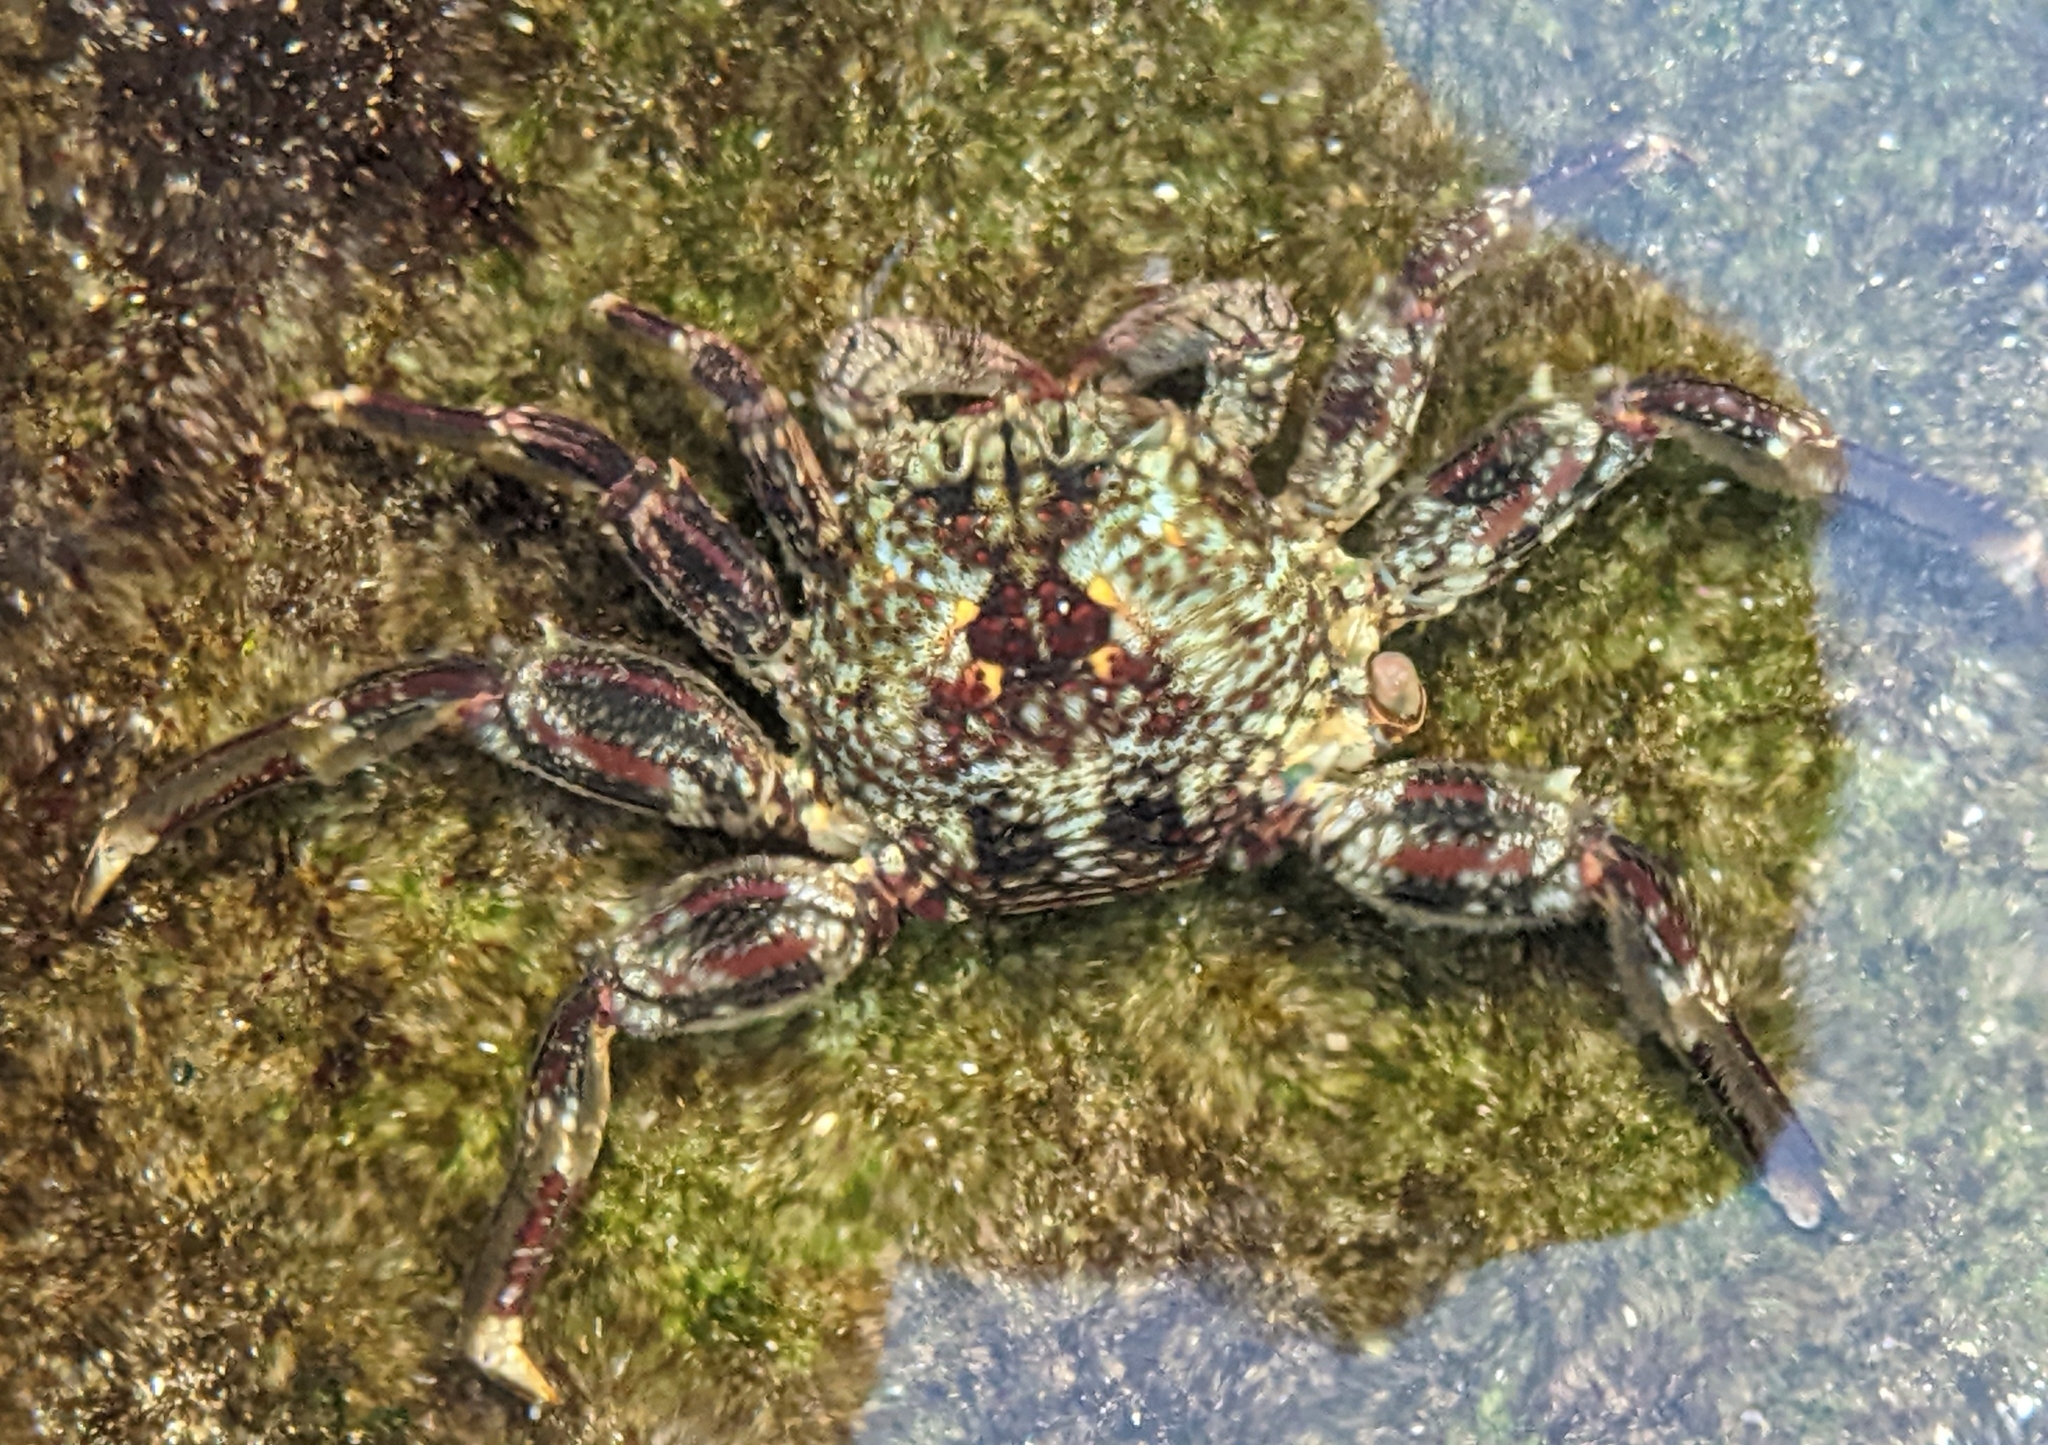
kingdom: Animalia
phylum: Arthropoda
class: Malacostraca
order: Decapoda
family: Plagusiidae
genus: Plagusia
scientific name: Plagusia squamosa
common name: Scaly rock crab
